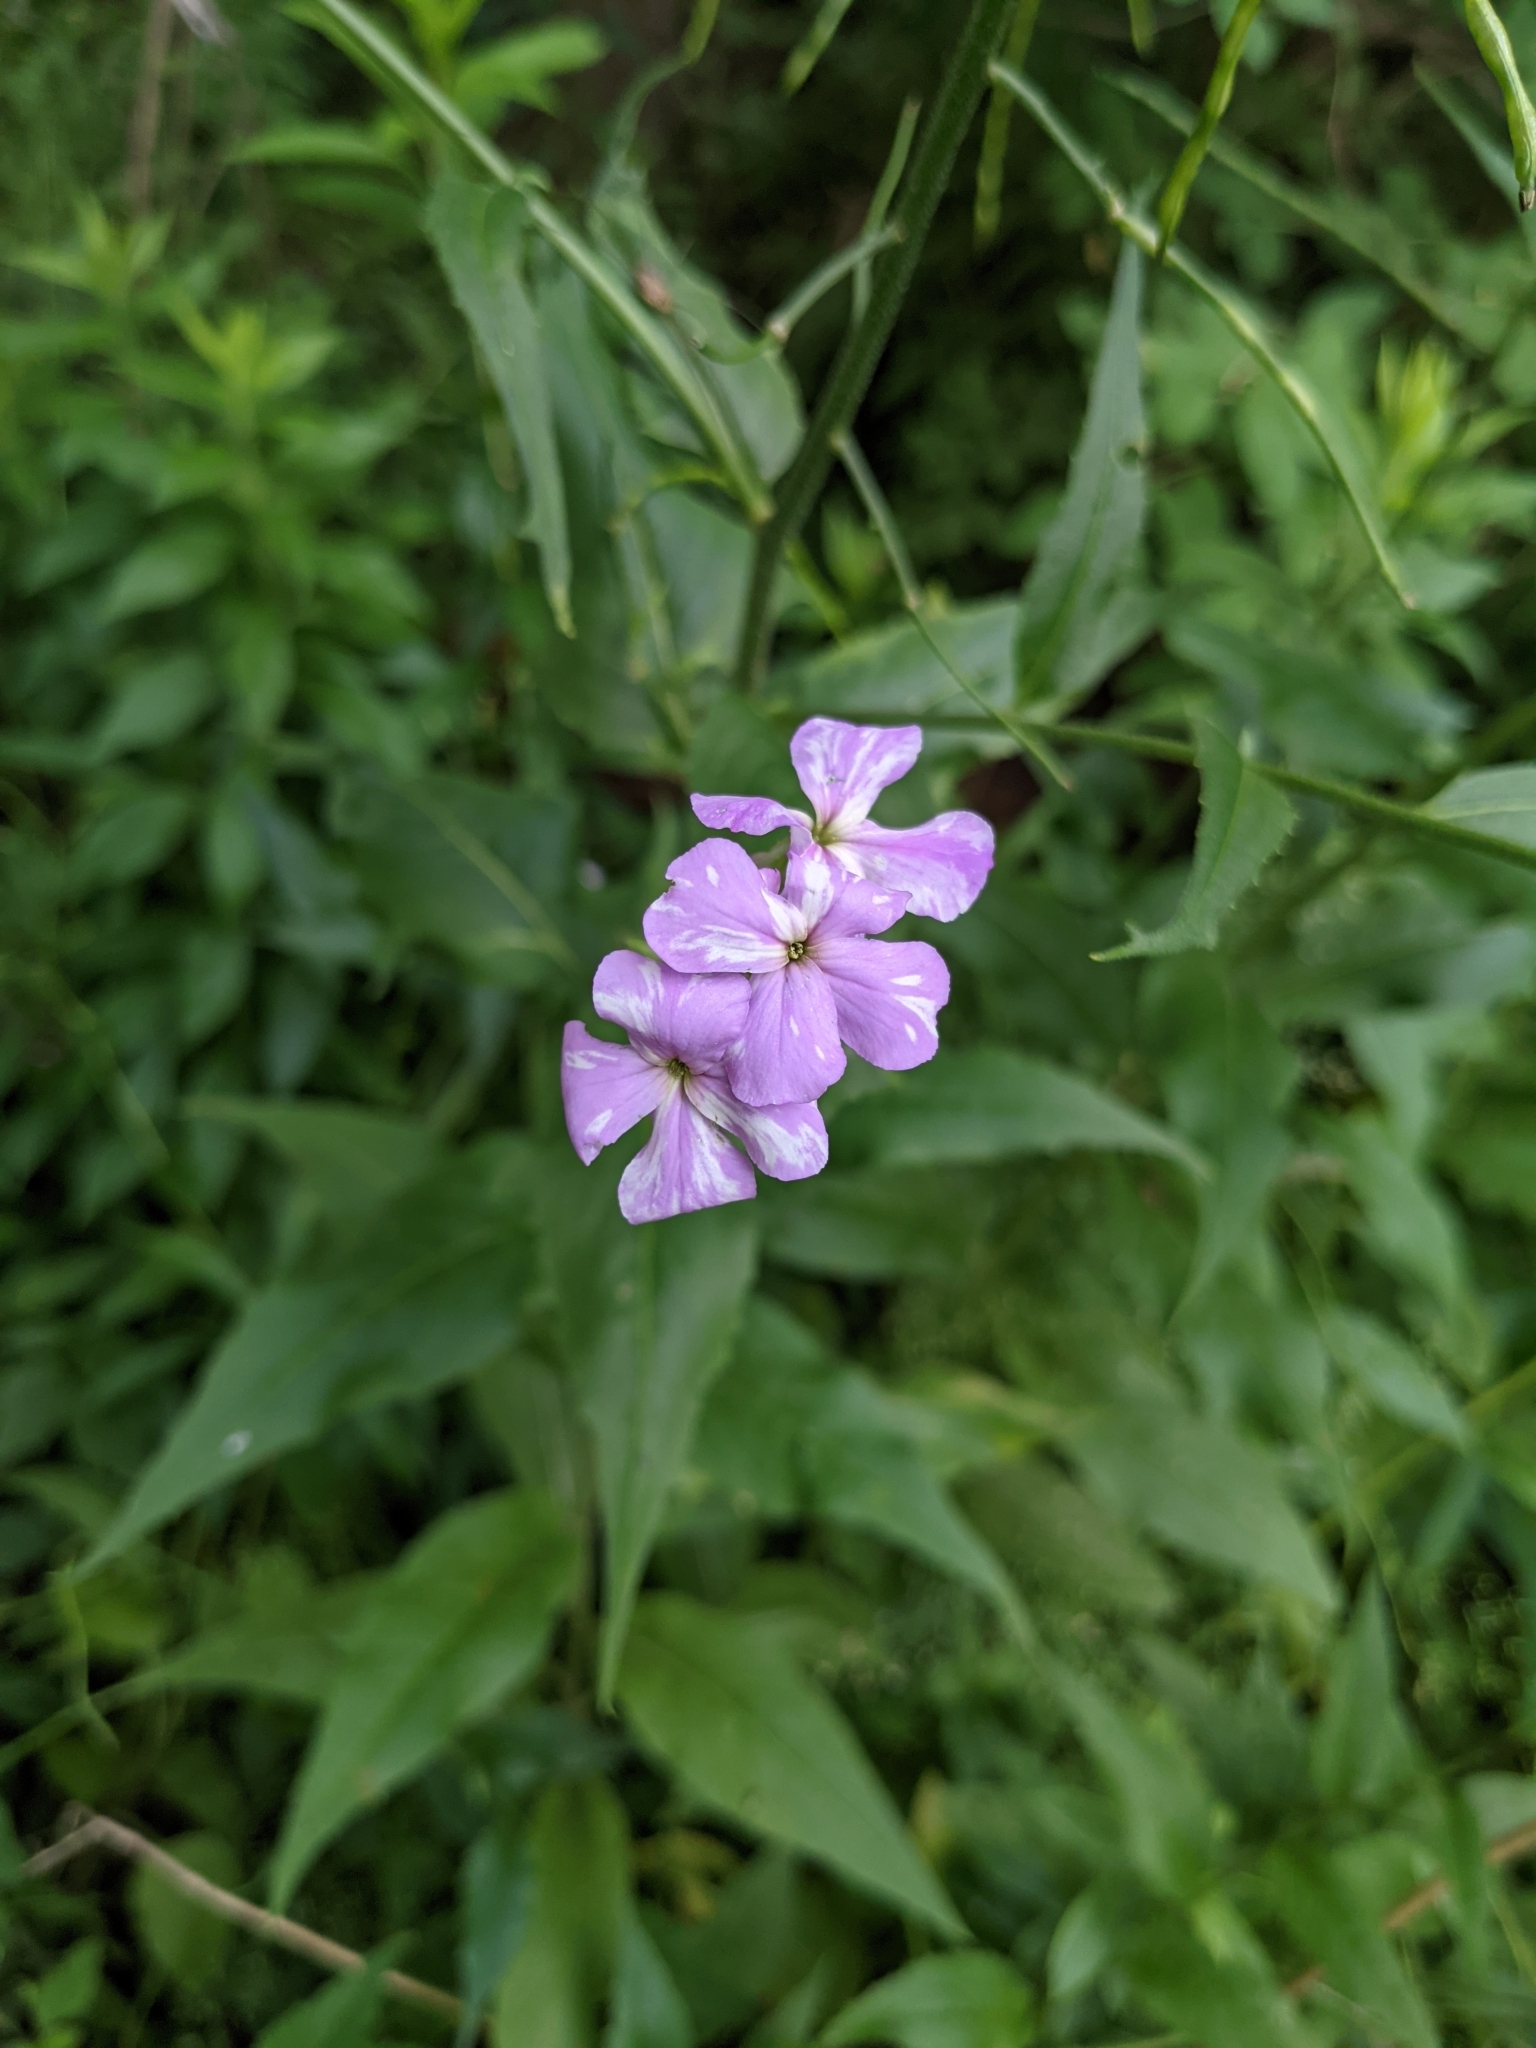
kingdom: Plantae
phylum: Tracheophyta
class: Magnoliopsida
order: Brassicales
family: Brassicaceae
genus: Hesperis
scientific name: Hesperis matronalis
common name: Dame's-violet
